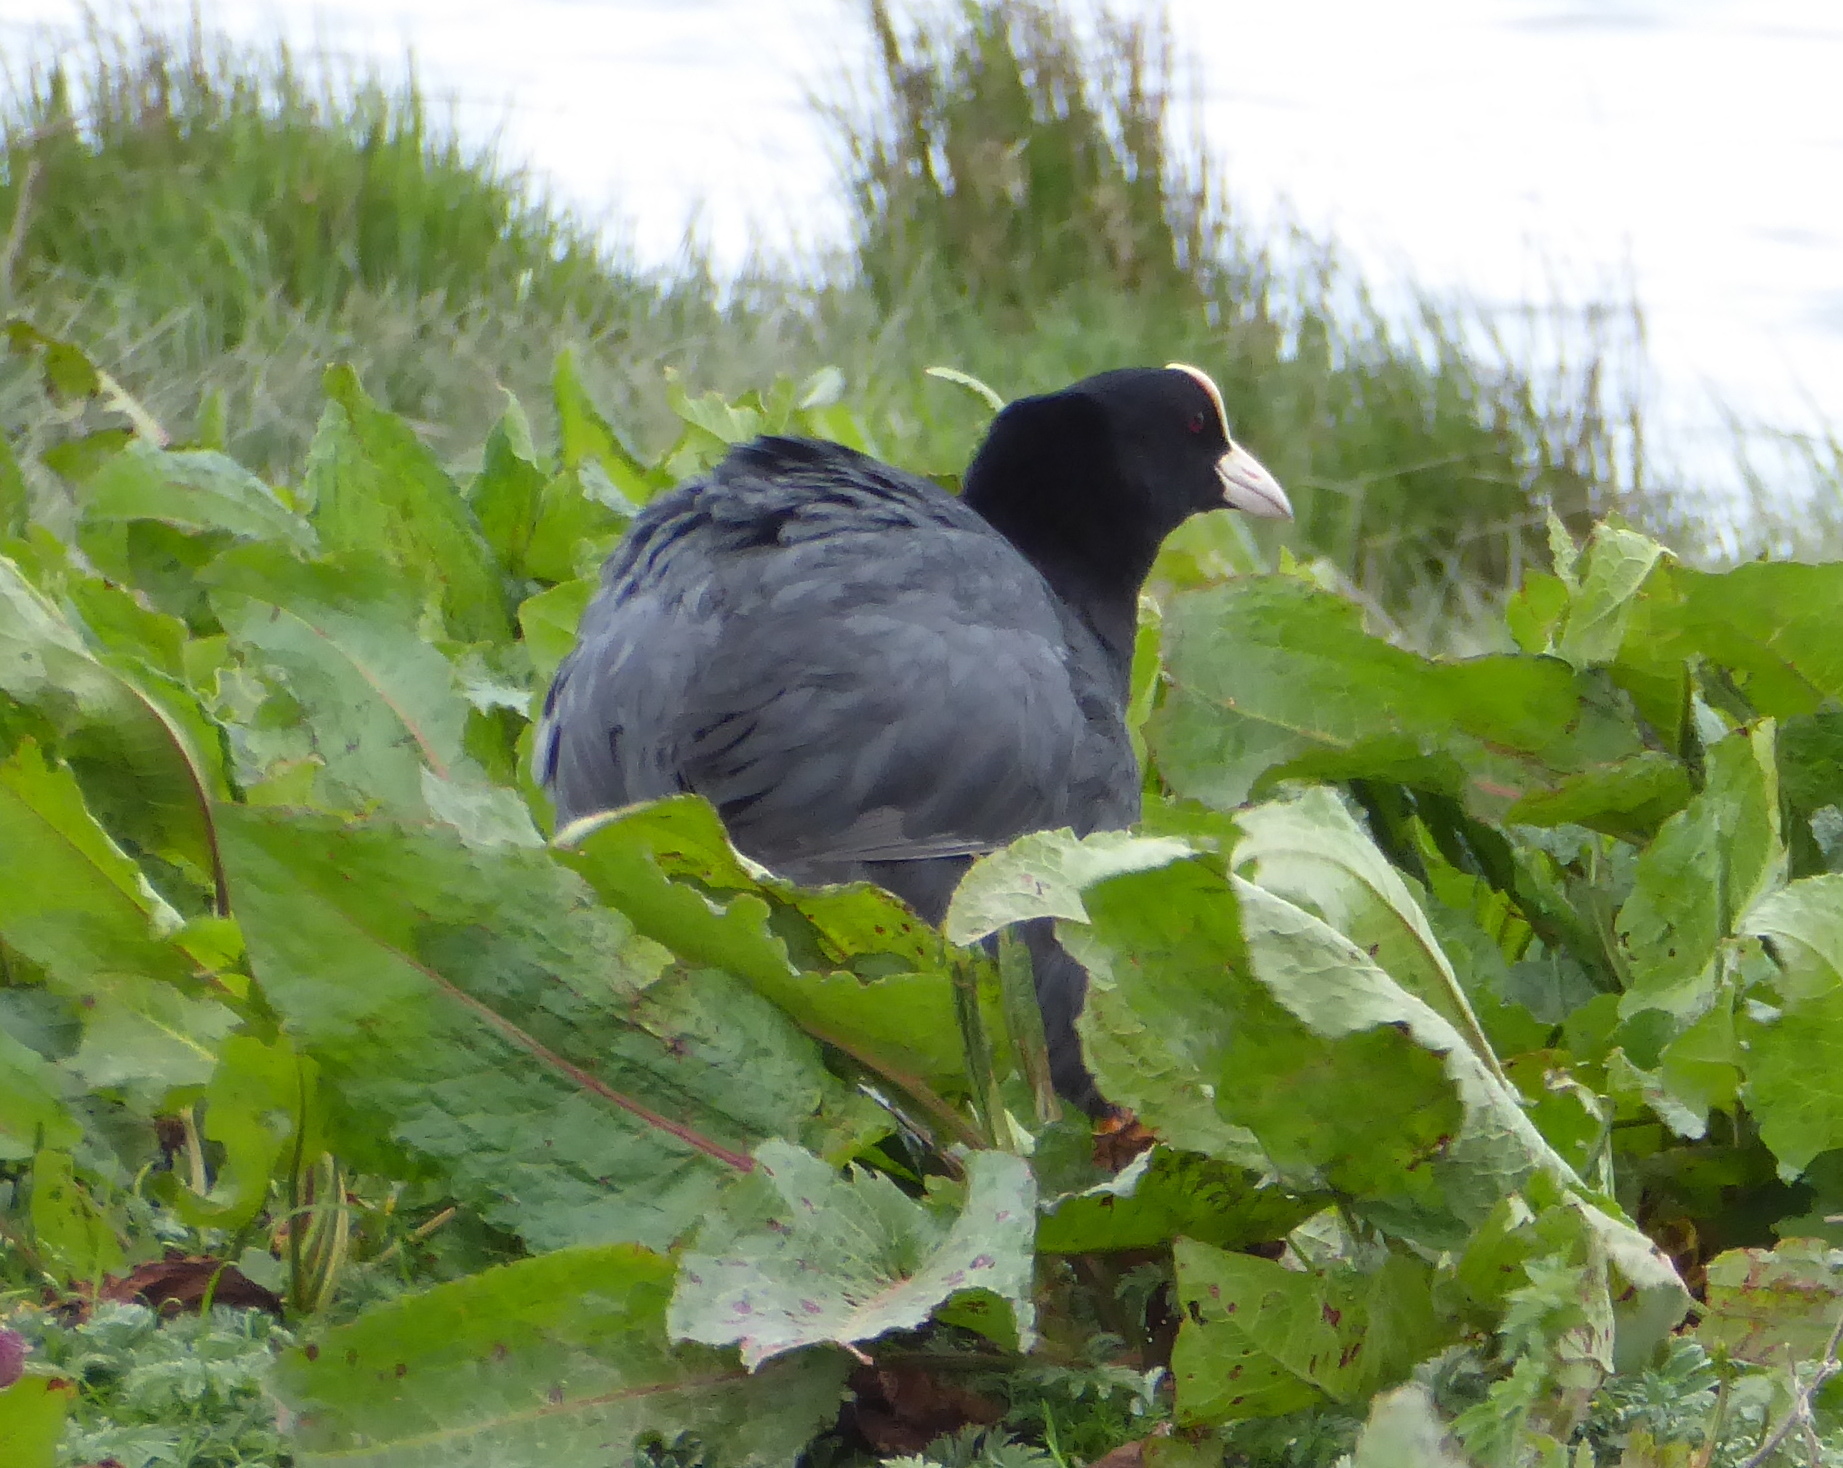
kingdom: Animalia
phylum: Chordata
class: Aves
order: Gruiformes
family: Rallidae
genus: Fulica
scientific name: Fulica atra
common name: Eurasian coot
